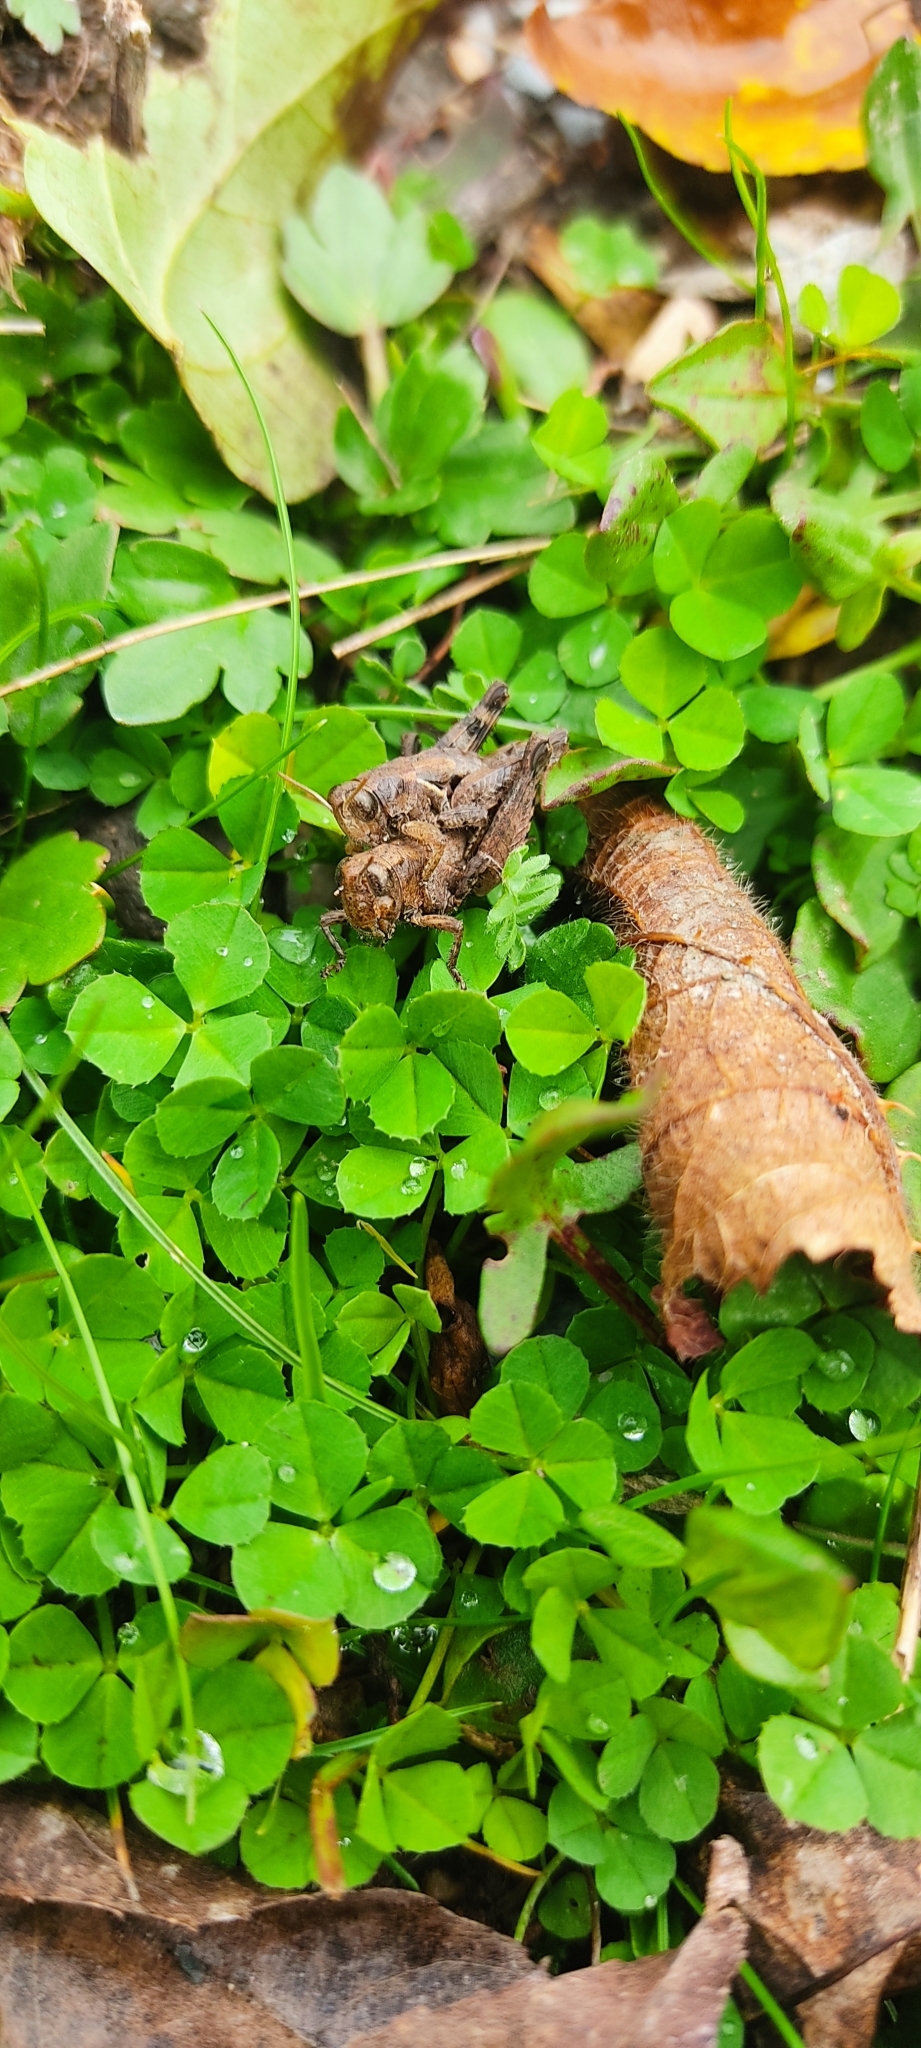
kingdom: Animalia
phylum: Arthropoda
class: Insecta
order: Orthoptera
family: Acrididae
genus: Pezotettix
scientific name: Pezotettix giornae
